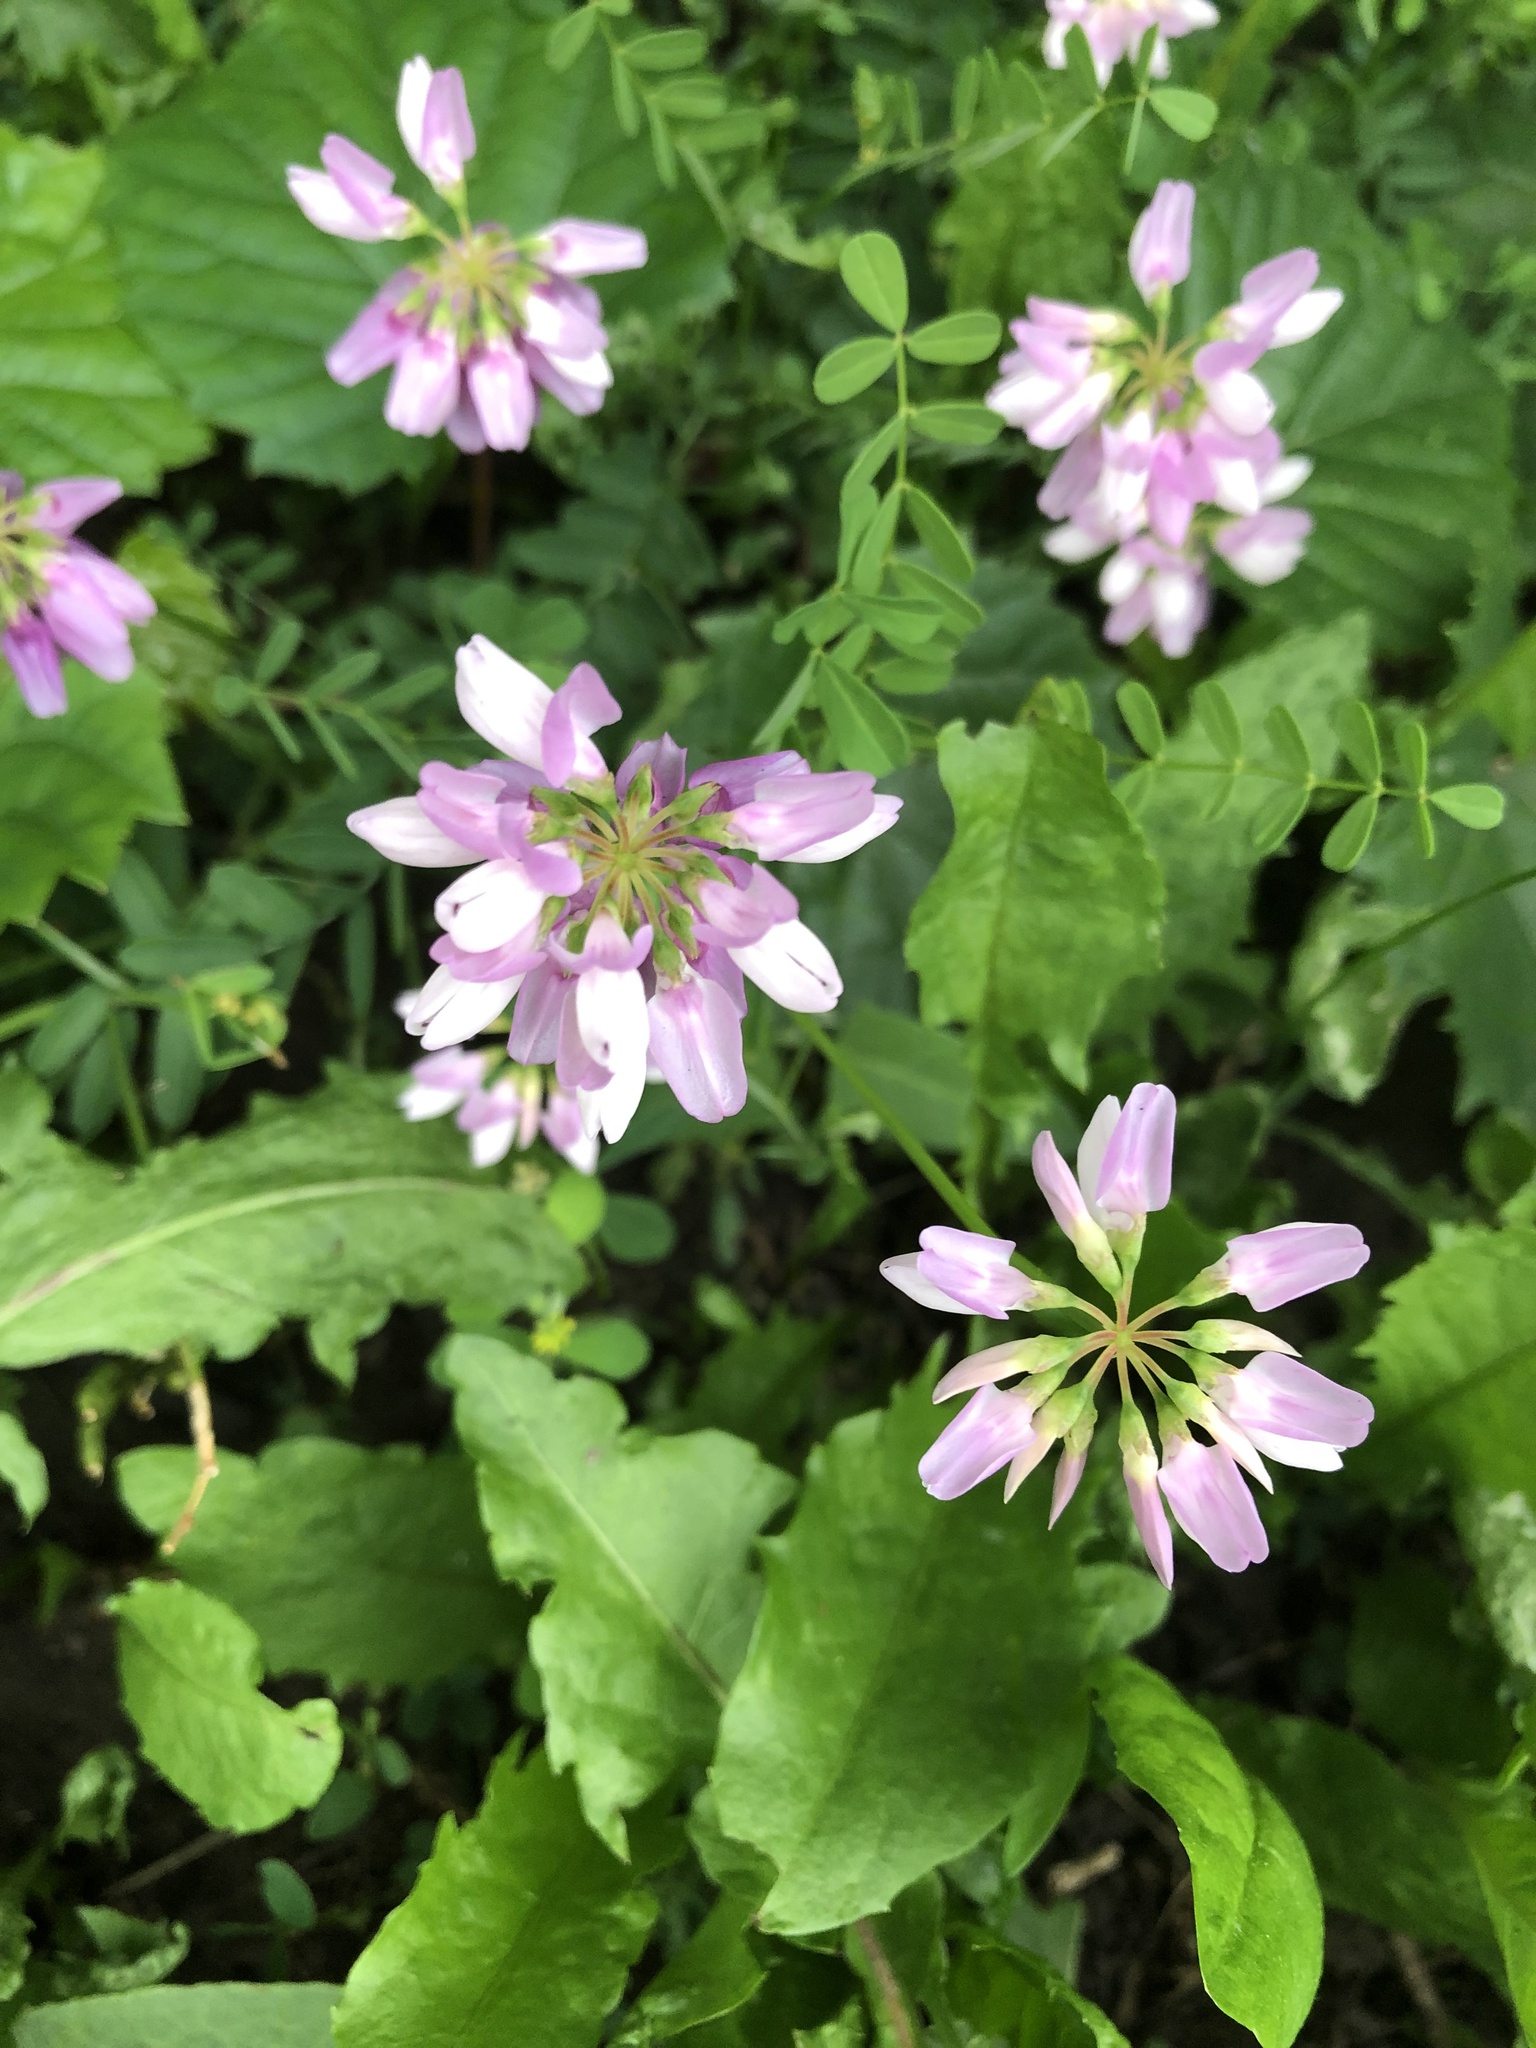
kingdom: Plantae
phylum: Tracheophyta
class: Magnoliopsida
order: Fabales
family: Fabaceae
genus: Coronilla
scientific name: Coronilla varia
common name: Crownvetch
